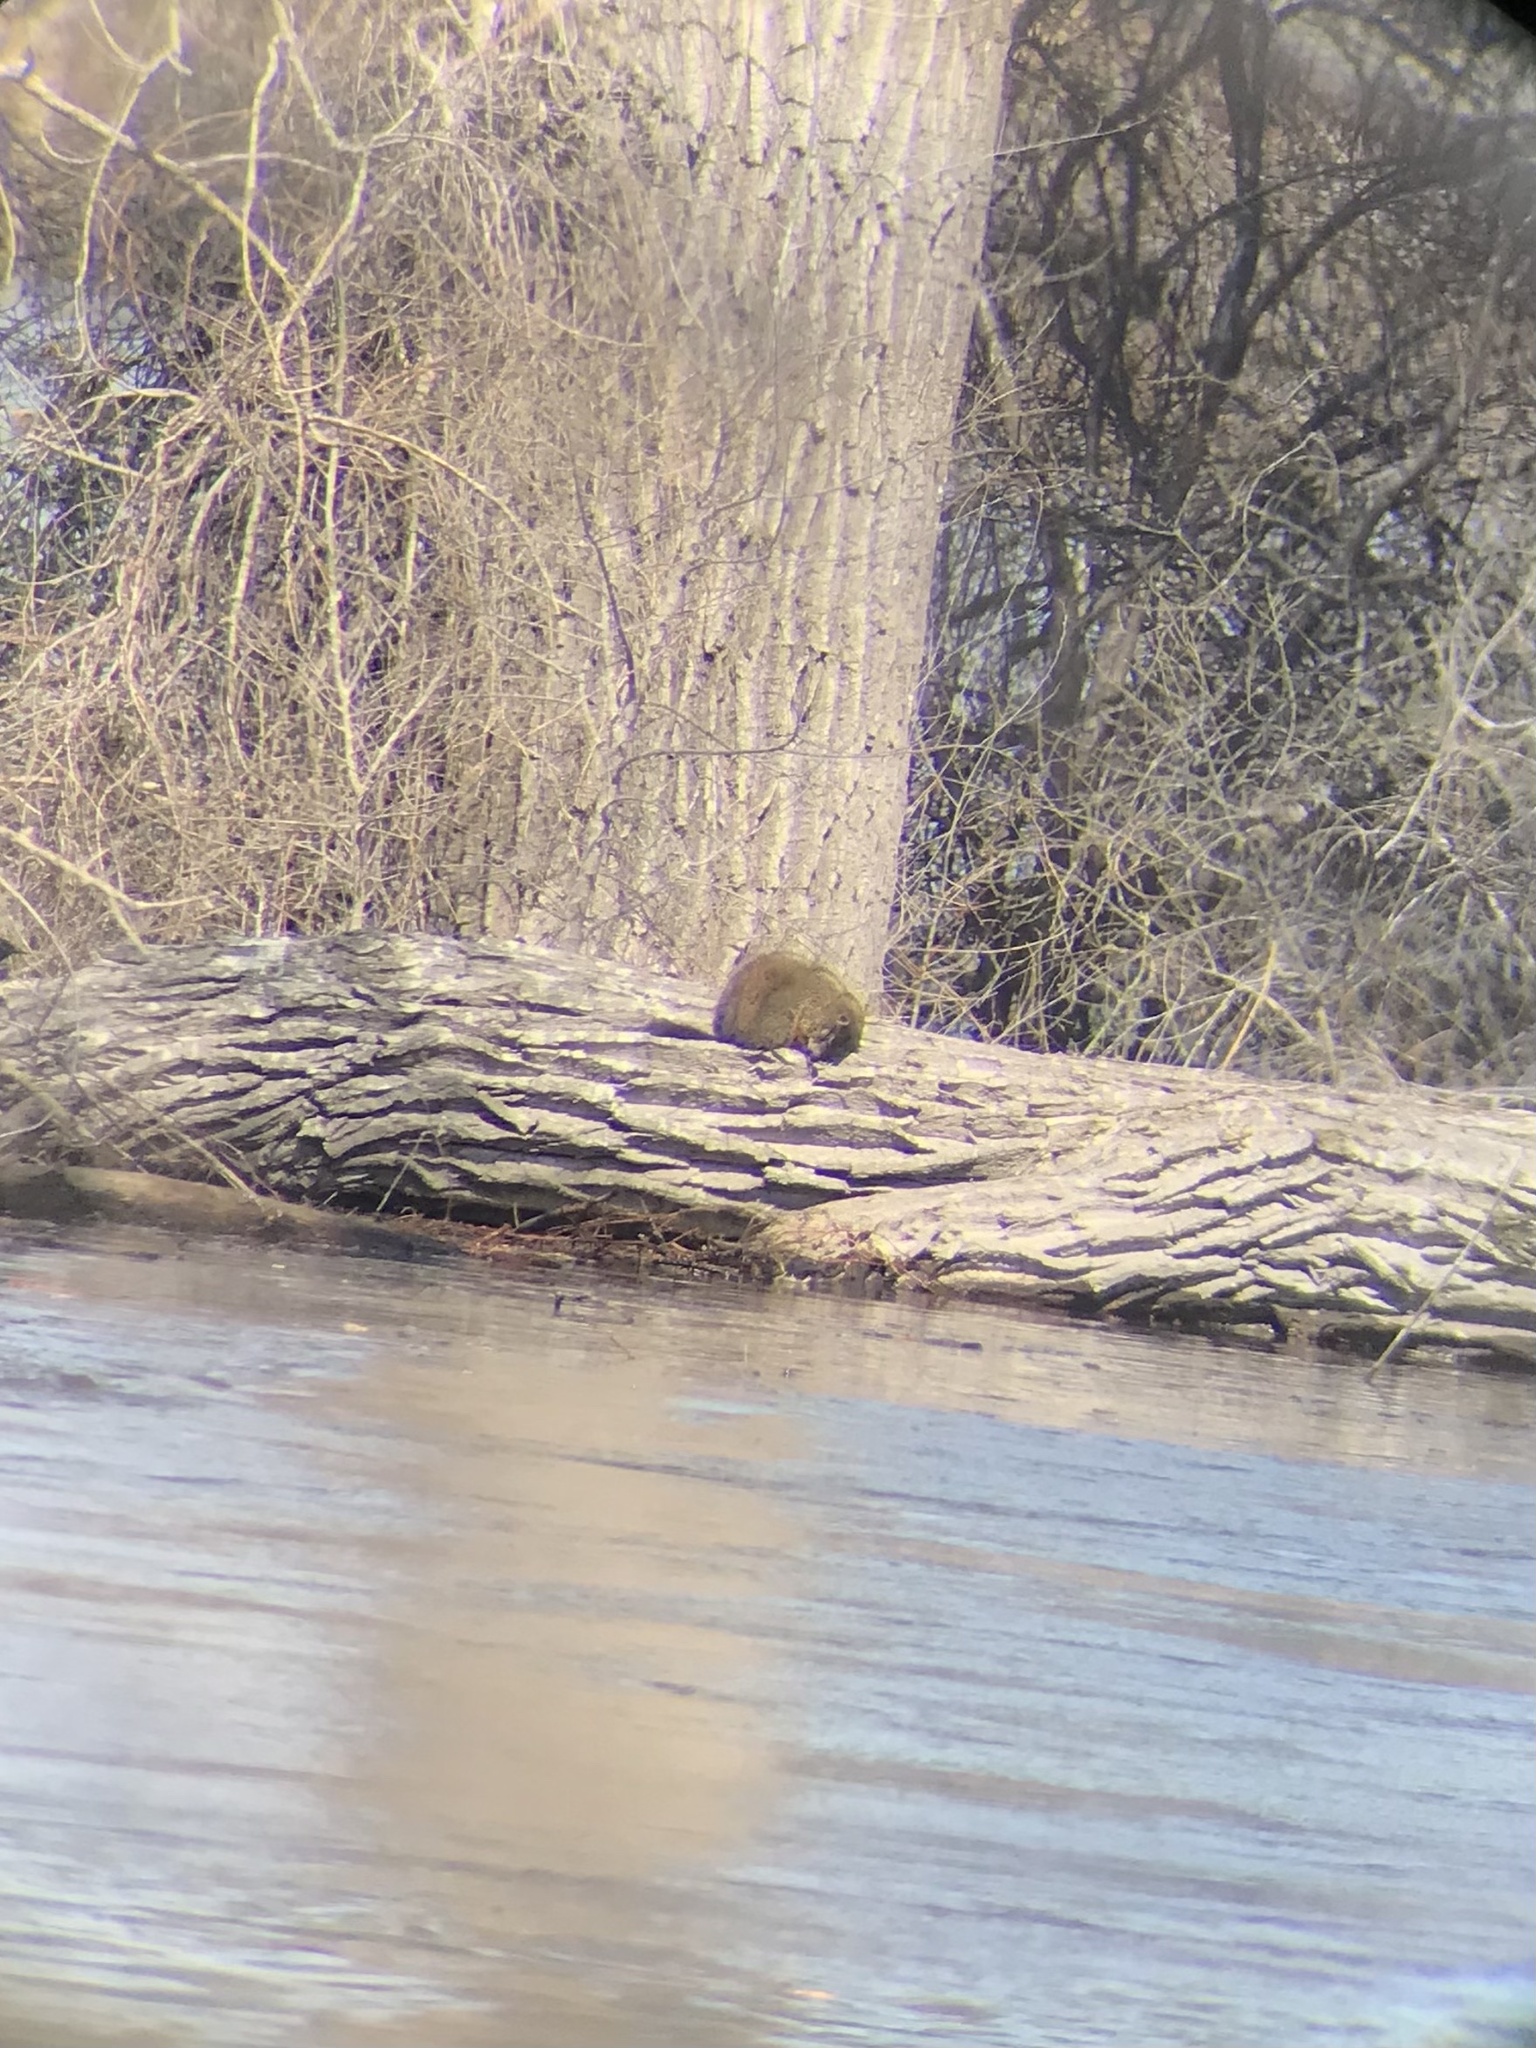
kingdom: Animalia
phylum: Chordata
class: Mammalia
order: Rodentia
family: Sciuridae
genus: Marmota
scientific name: Marmota monax
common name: Groundhog
